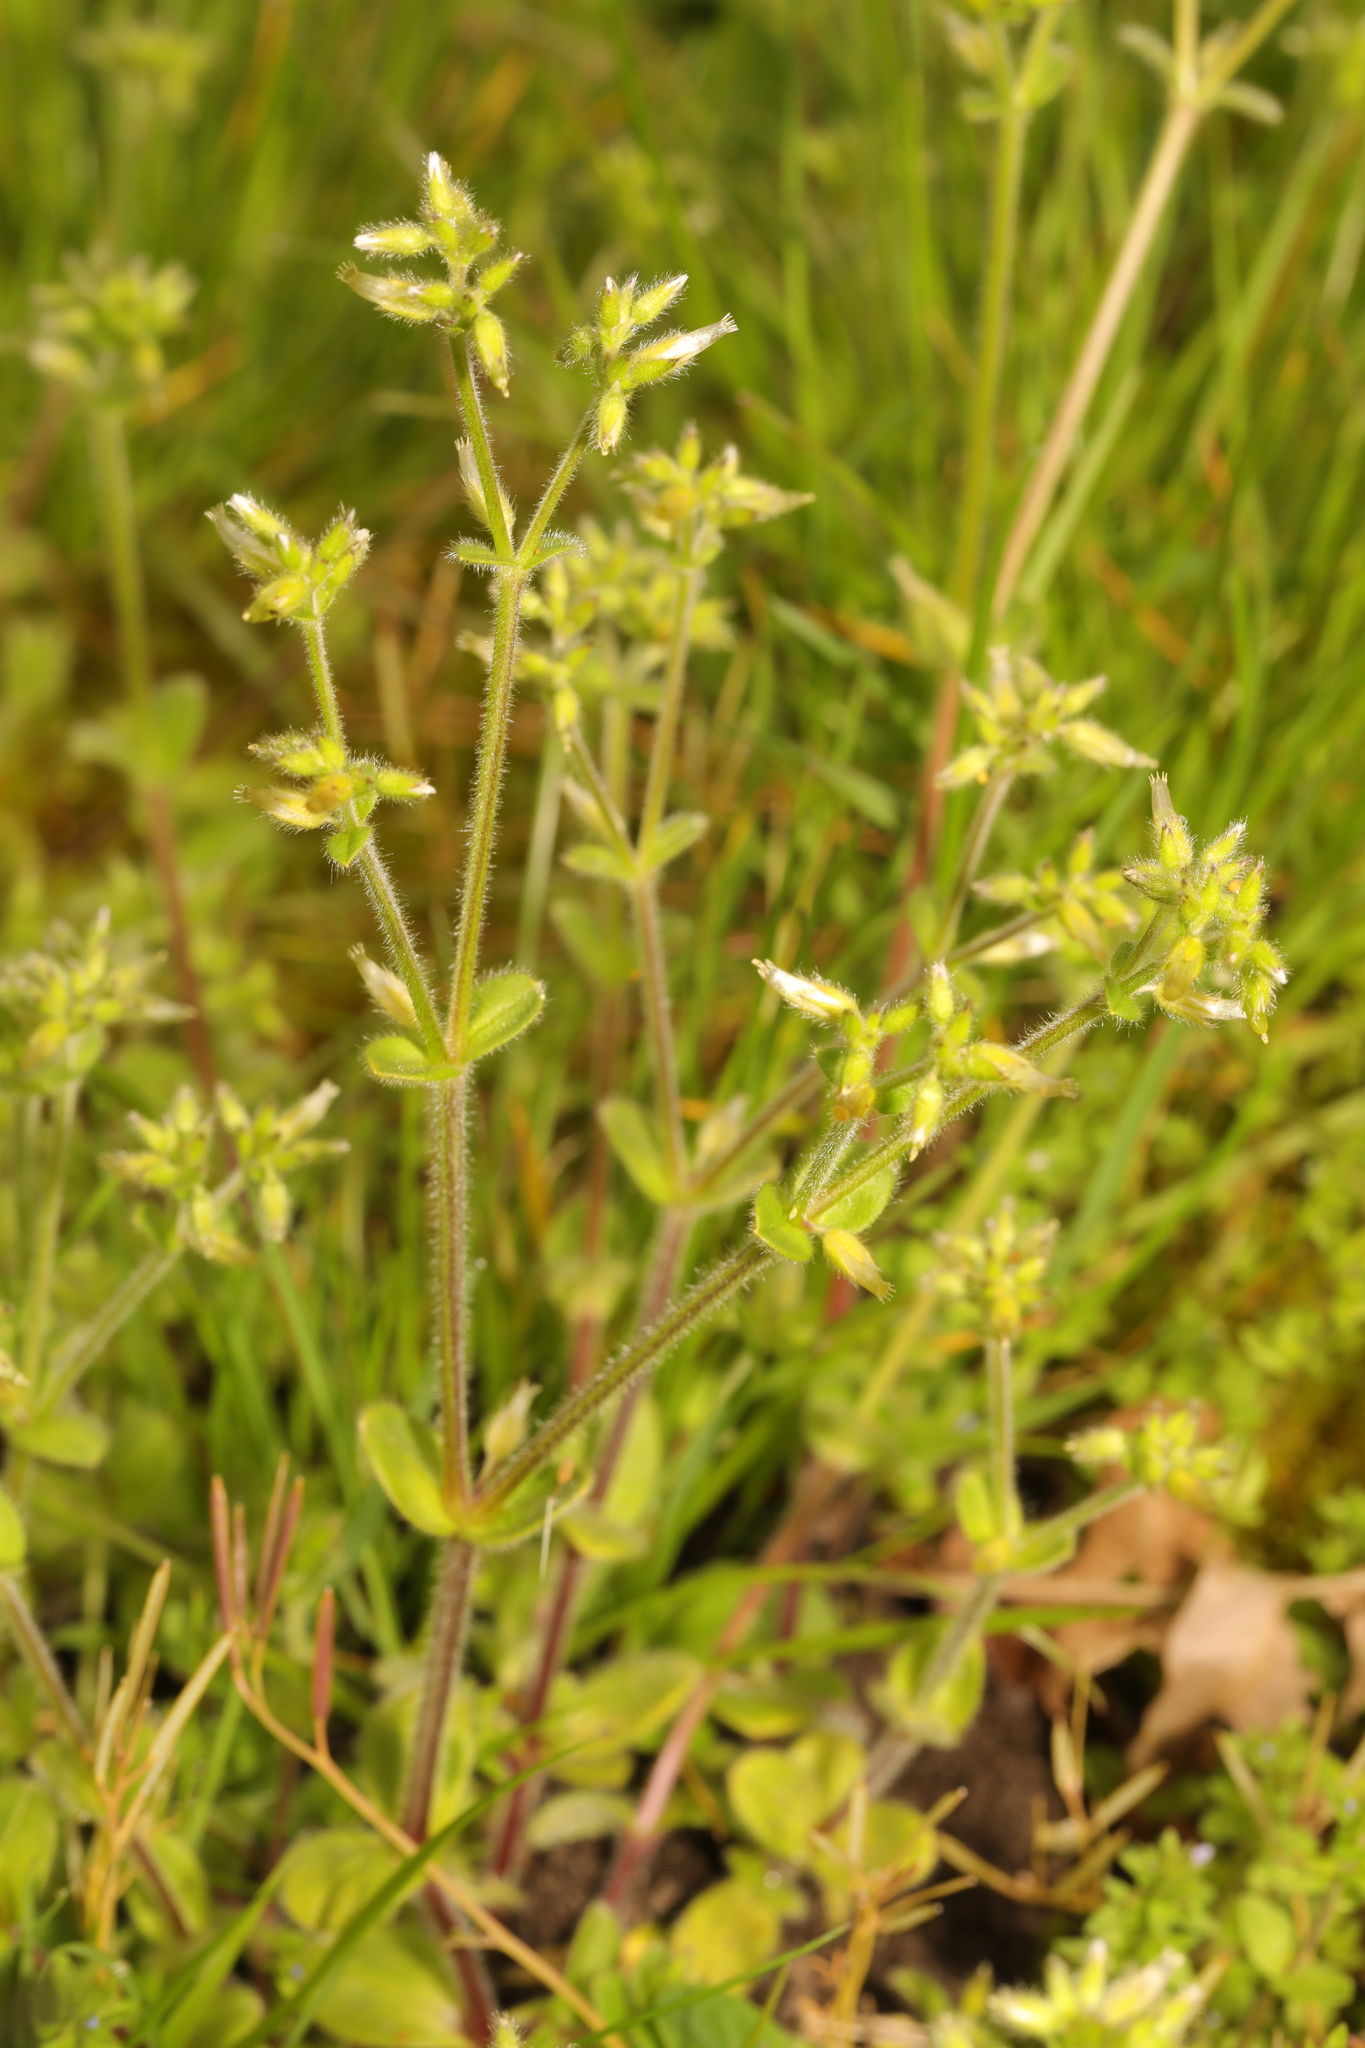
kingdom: Plantae
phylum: Tracheophyta
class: Magnoliopsida
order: Caryophyllales
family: Caryophyllaceae
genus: Cerastium
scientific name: Cerastium glomeratum
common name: Sticky chickweed
